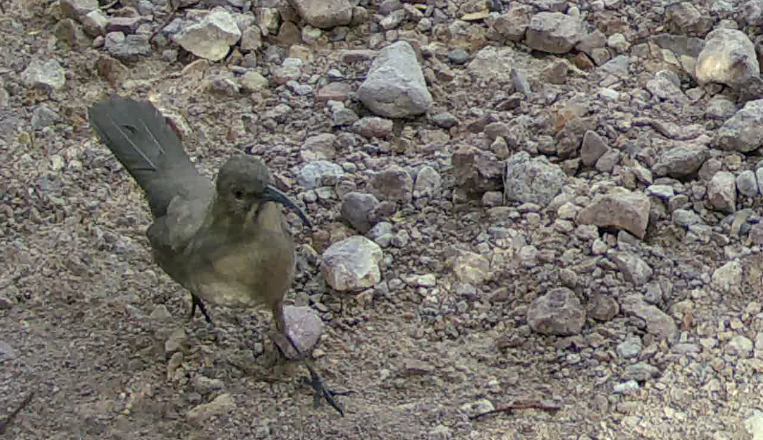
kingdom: Animalia
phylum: Chordata
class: Aves
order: Passeriformes
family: Mimidae
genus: Toxostoma
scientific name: Toxostoma crissale
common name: Crissal thrasher
